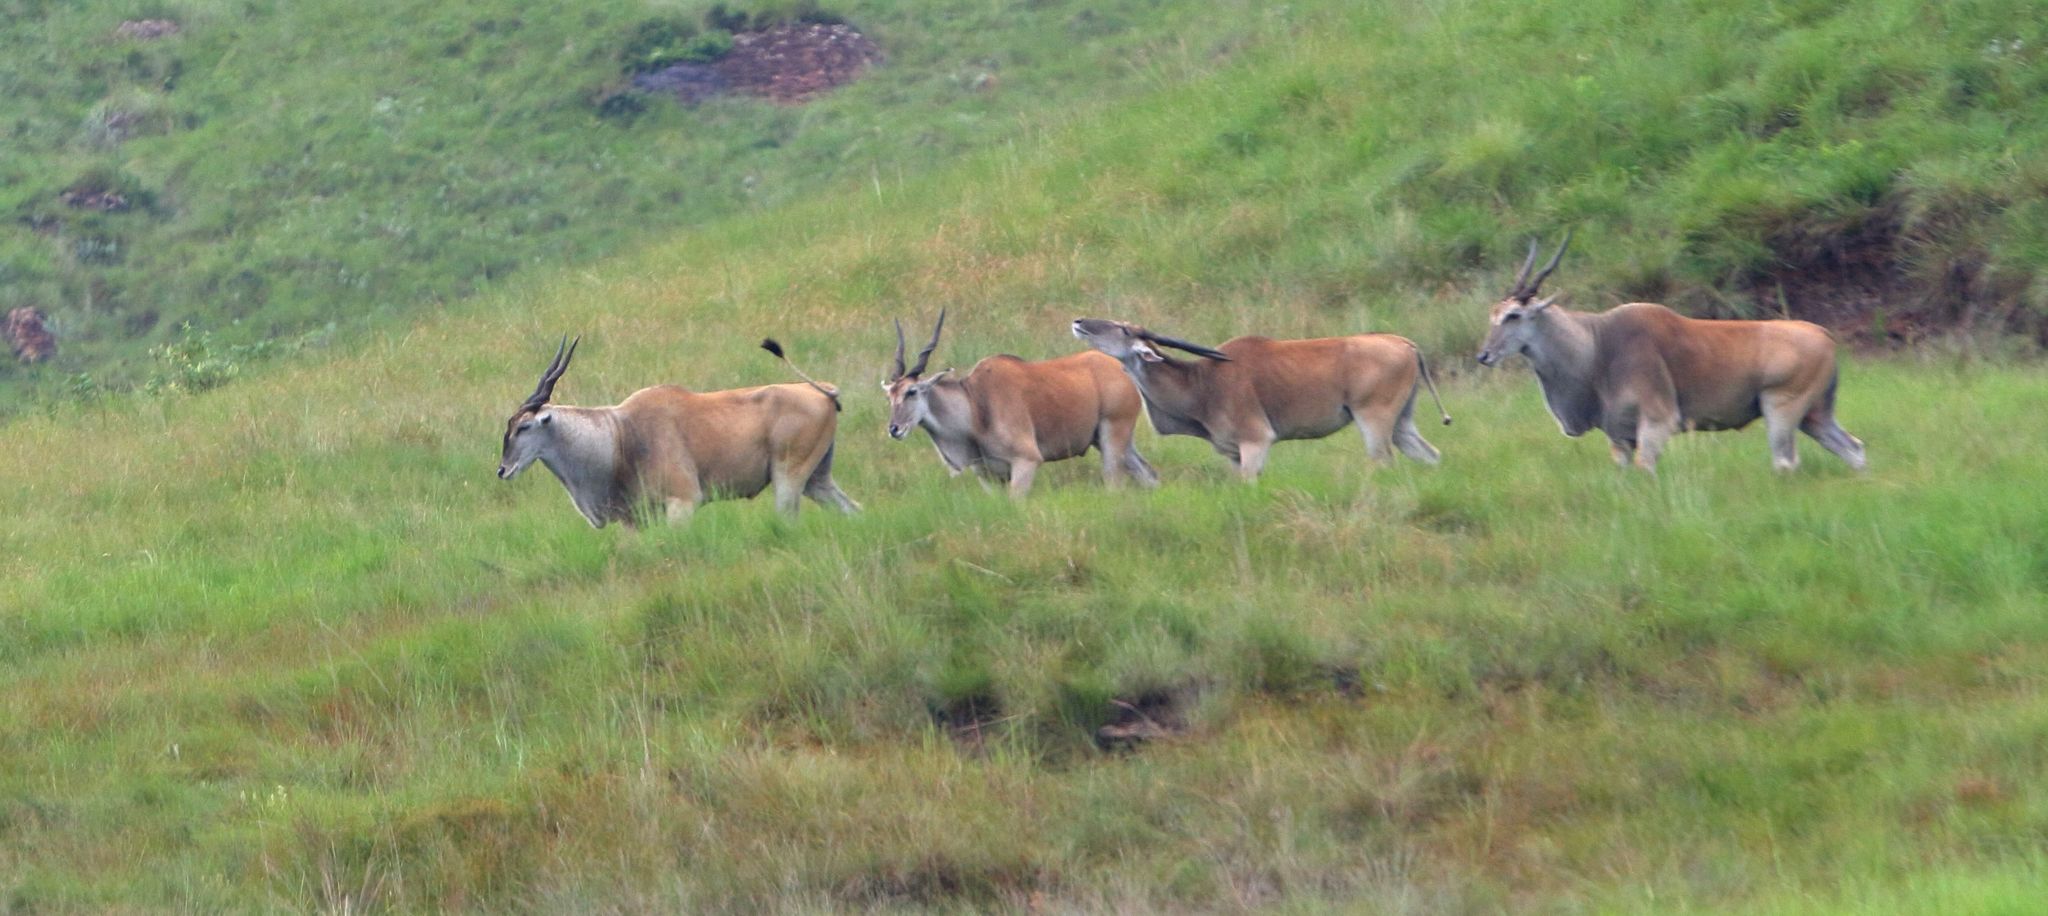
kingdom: Animalia
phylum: Chordata
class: Mammalia
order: Artiodactyla
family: Bovidae
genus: Taurotragus
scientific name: Taurotragus oryx
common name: Common eland
